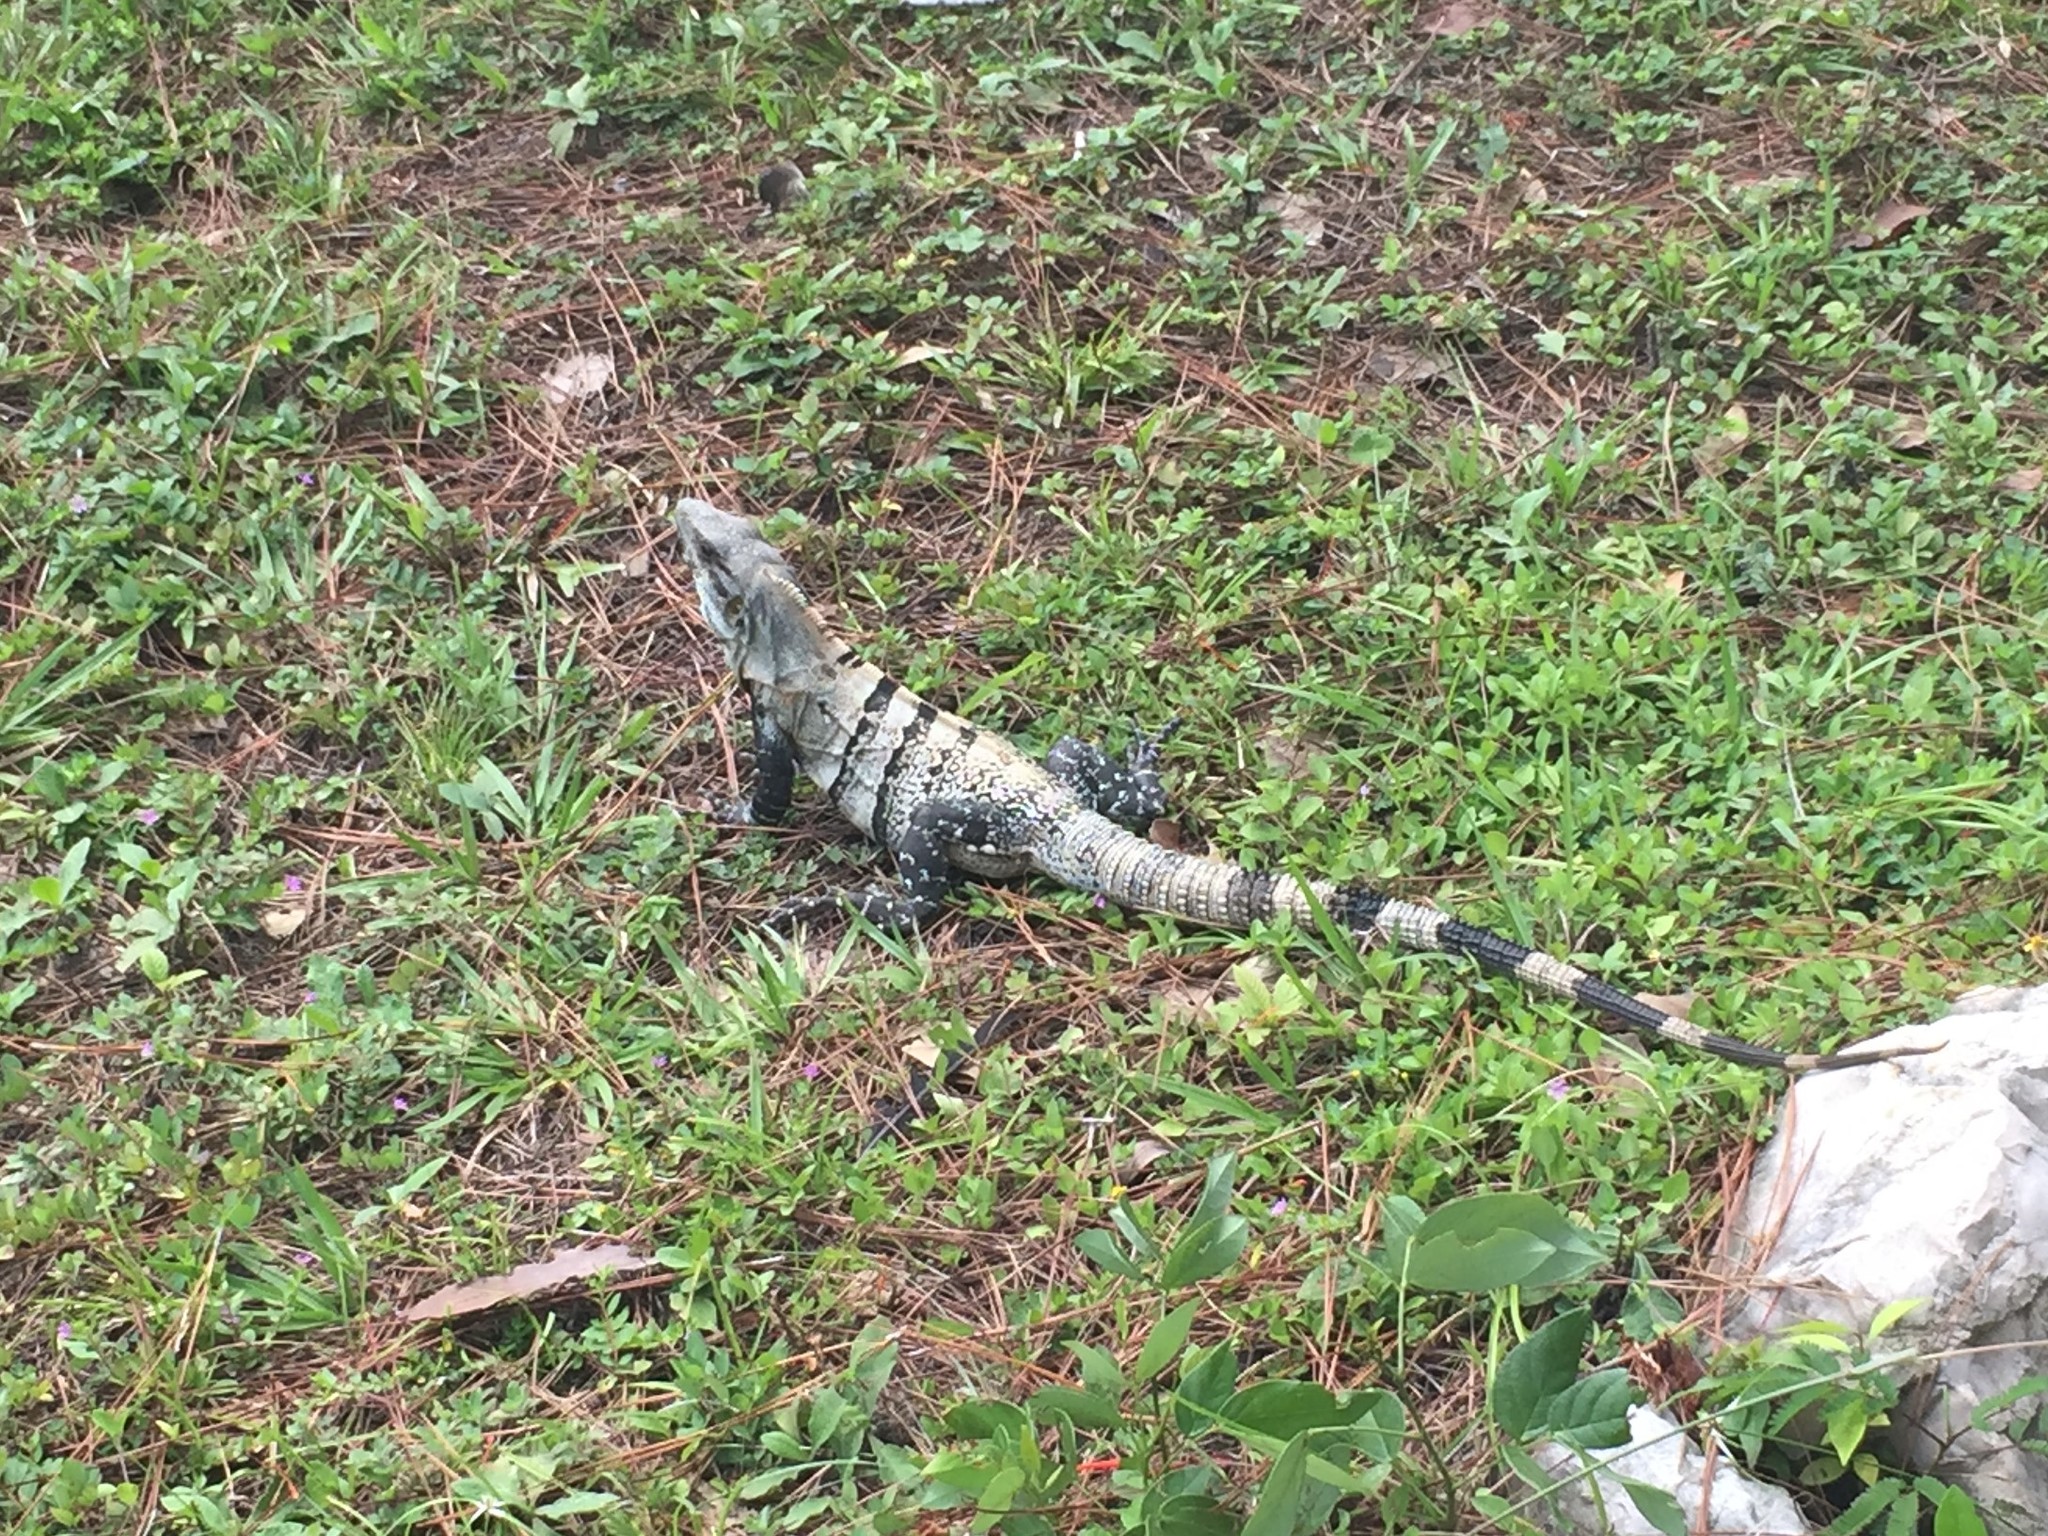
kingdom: Animalia
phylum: Chordata
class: Squamata
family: Iguanidae
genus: Ctenosaura
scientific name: Ctenosaura similis
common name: Black spiny-tailed iguana
